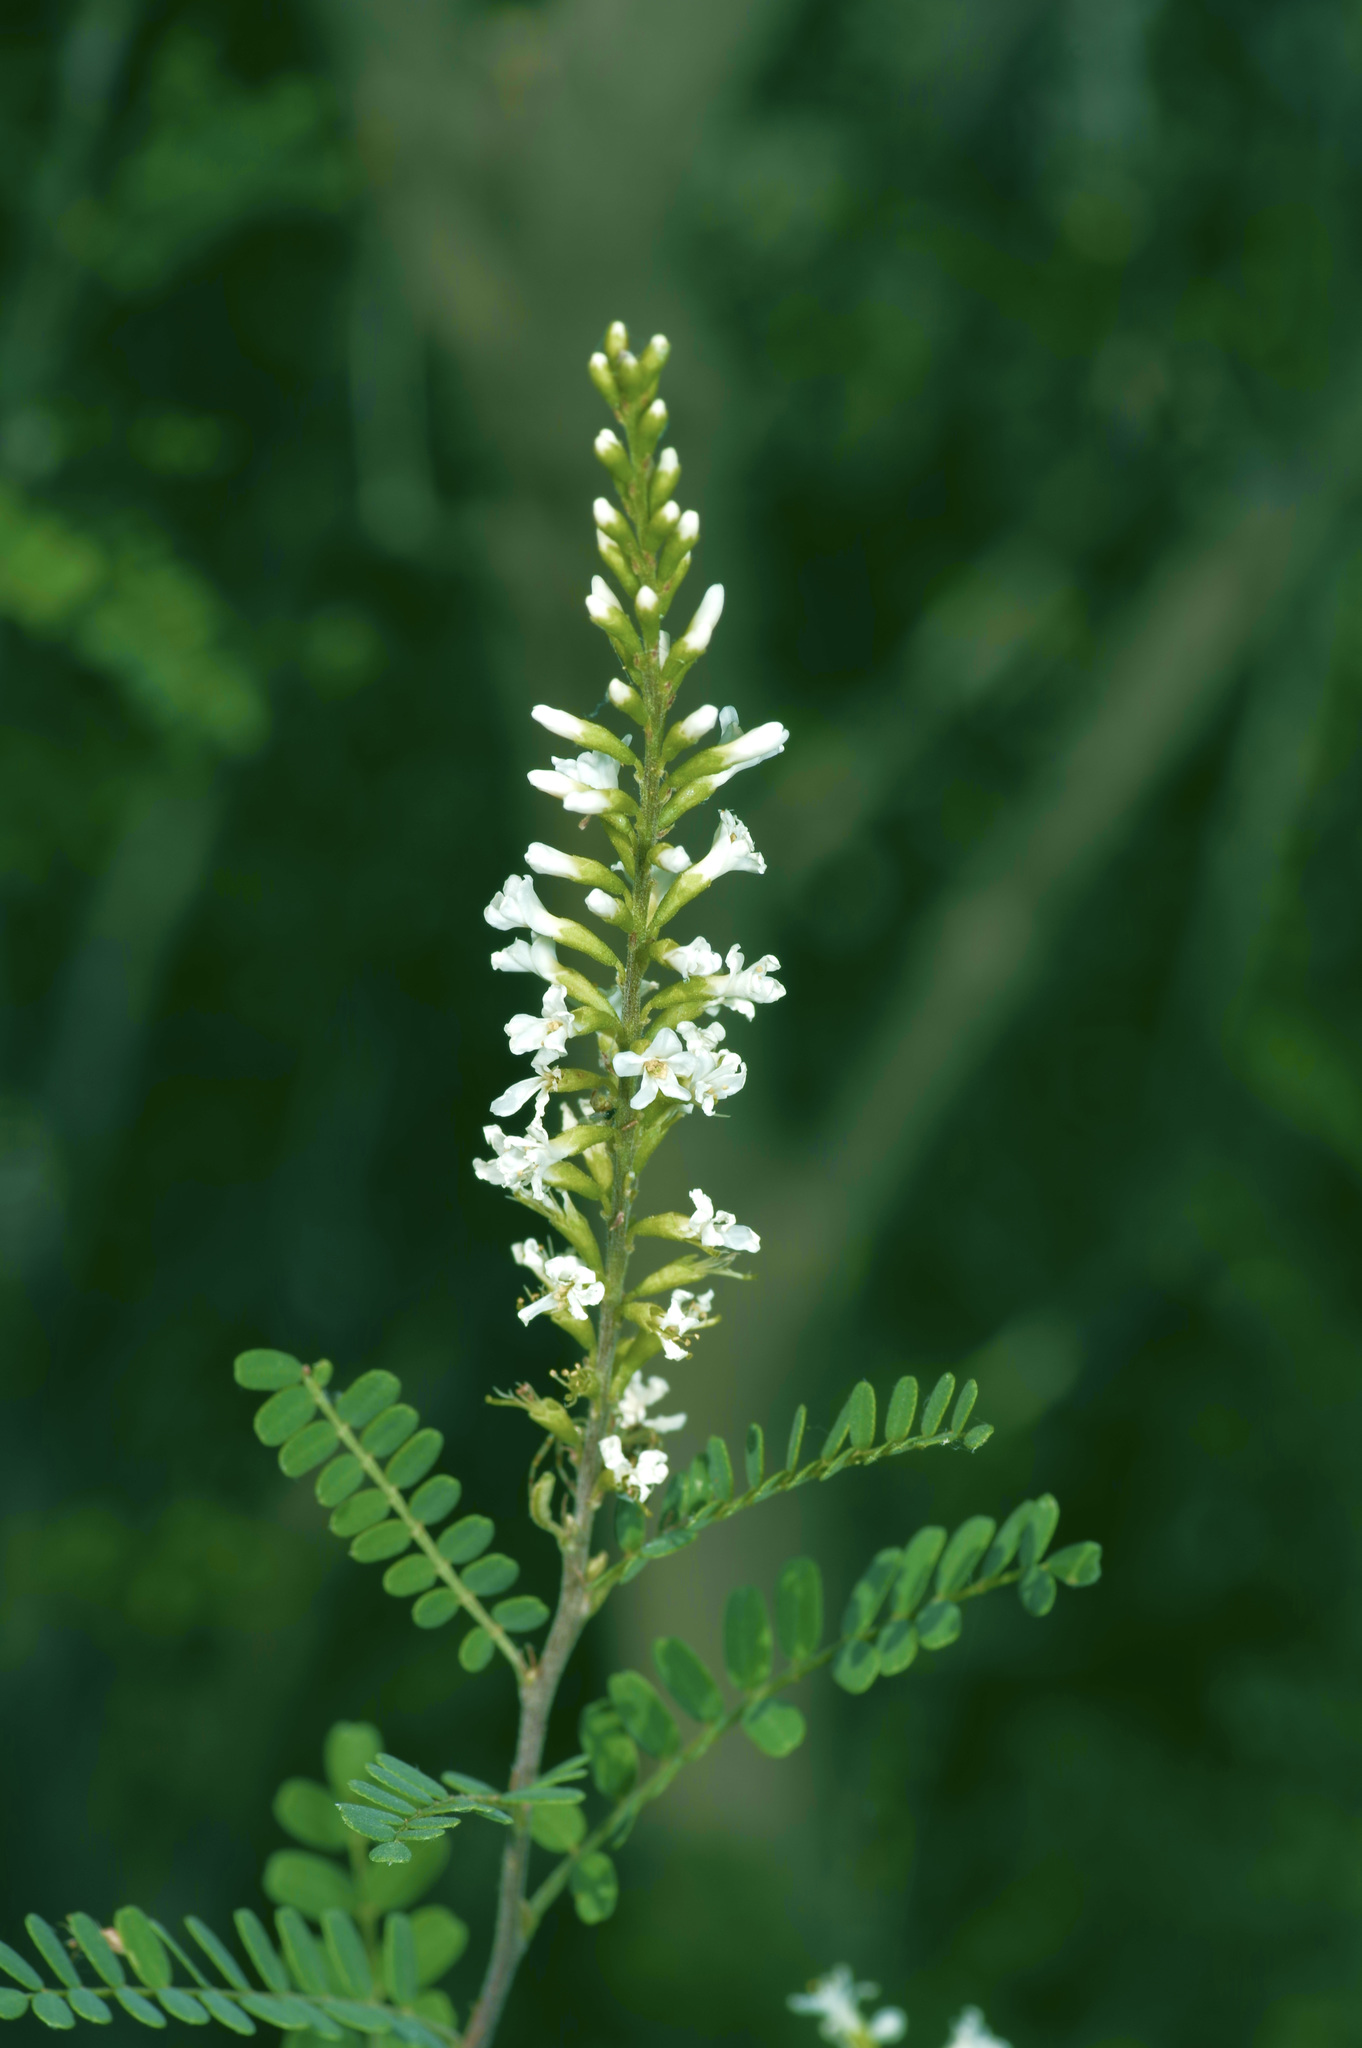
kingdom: Plantae
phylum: Tracheophyta
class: Magnoliopsida
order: Fabales
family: Fabaceae
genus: Eysenhardtia
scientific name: Eysenhardtia texana
